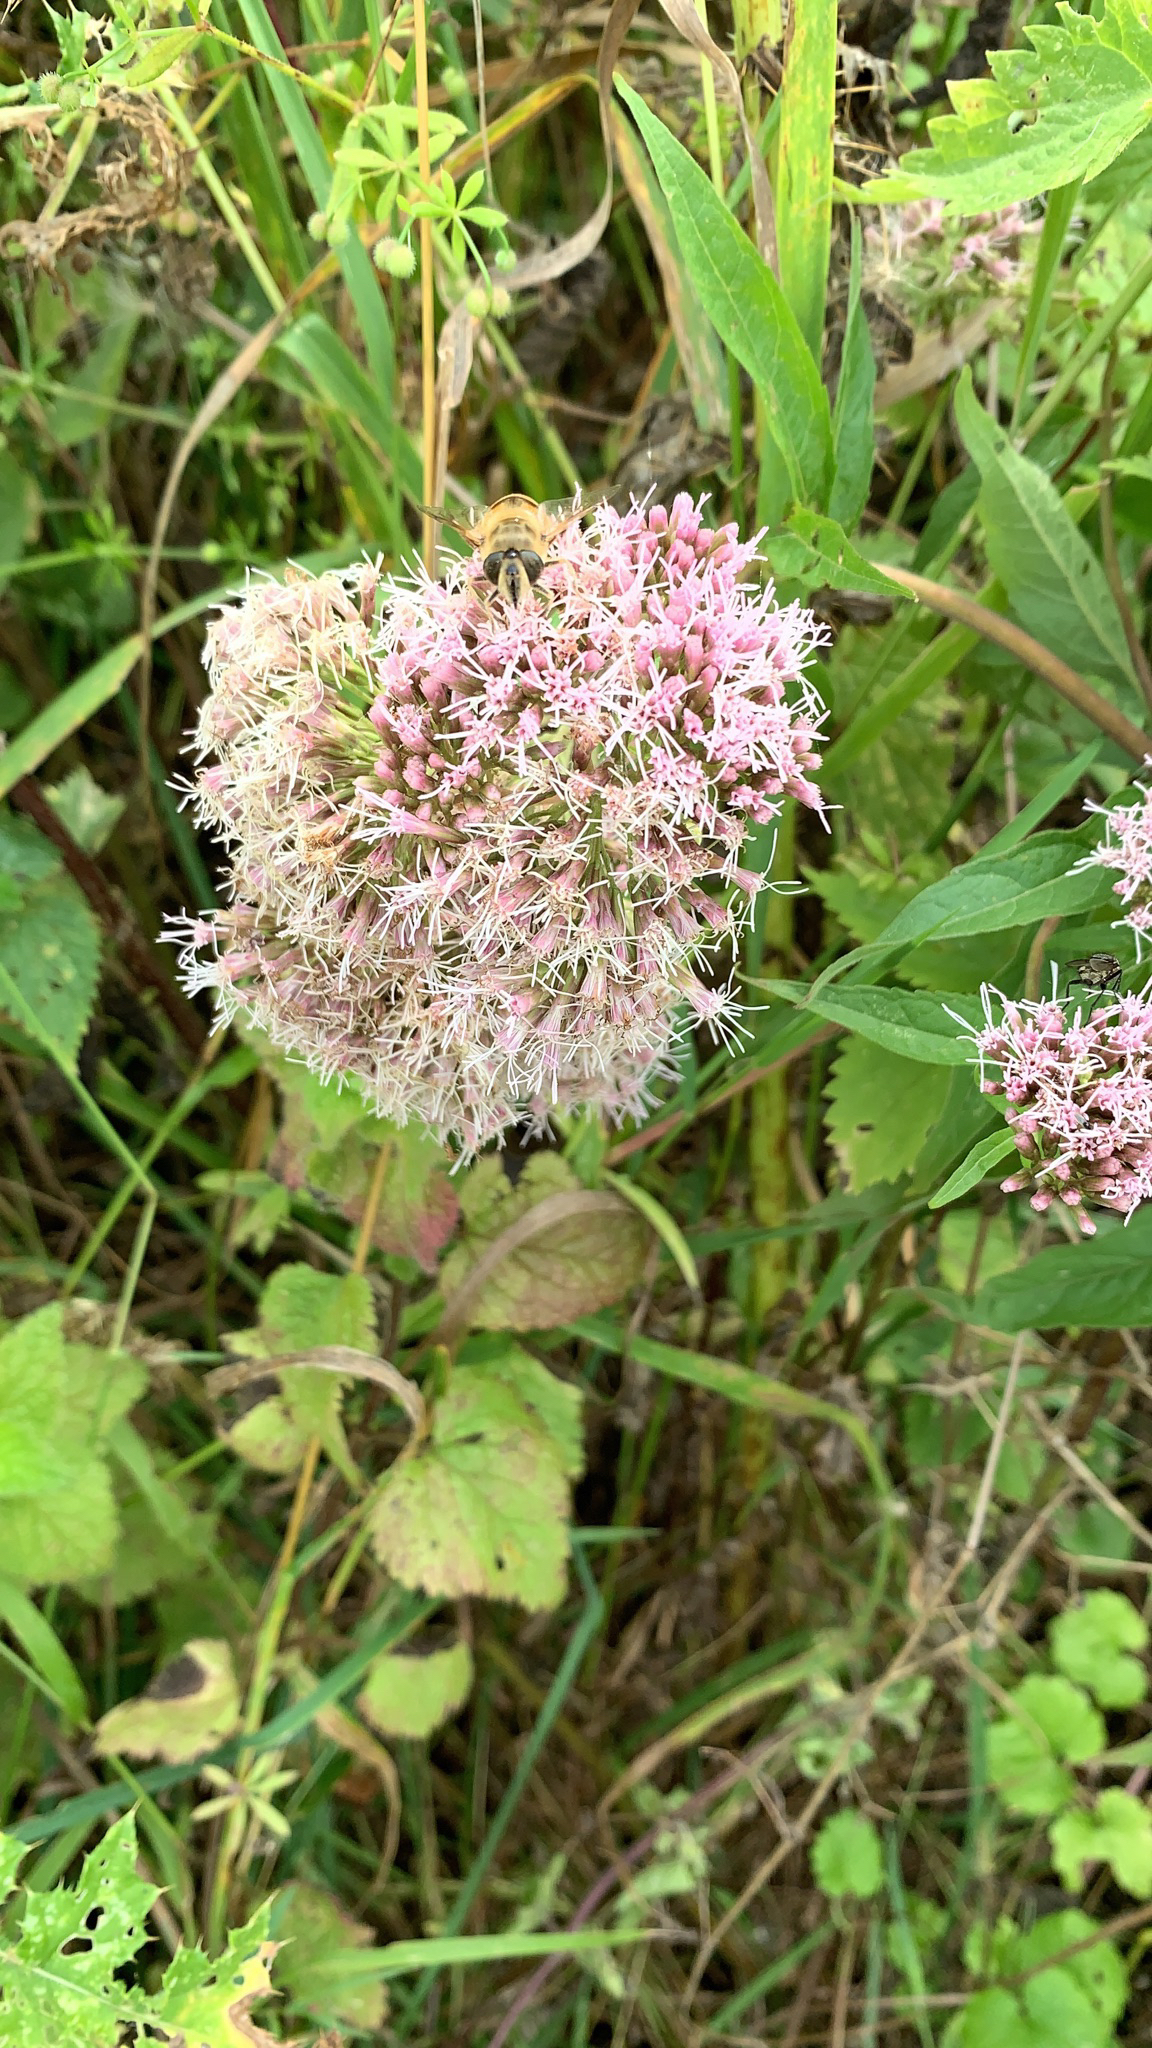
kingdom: Plantae
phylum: Tracheophyta
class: Magnoliopsida
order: Asterales
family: Asteraceae
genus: Eupatorium
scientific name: Eupatorium cannabinum
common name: Hemp-agrimony
